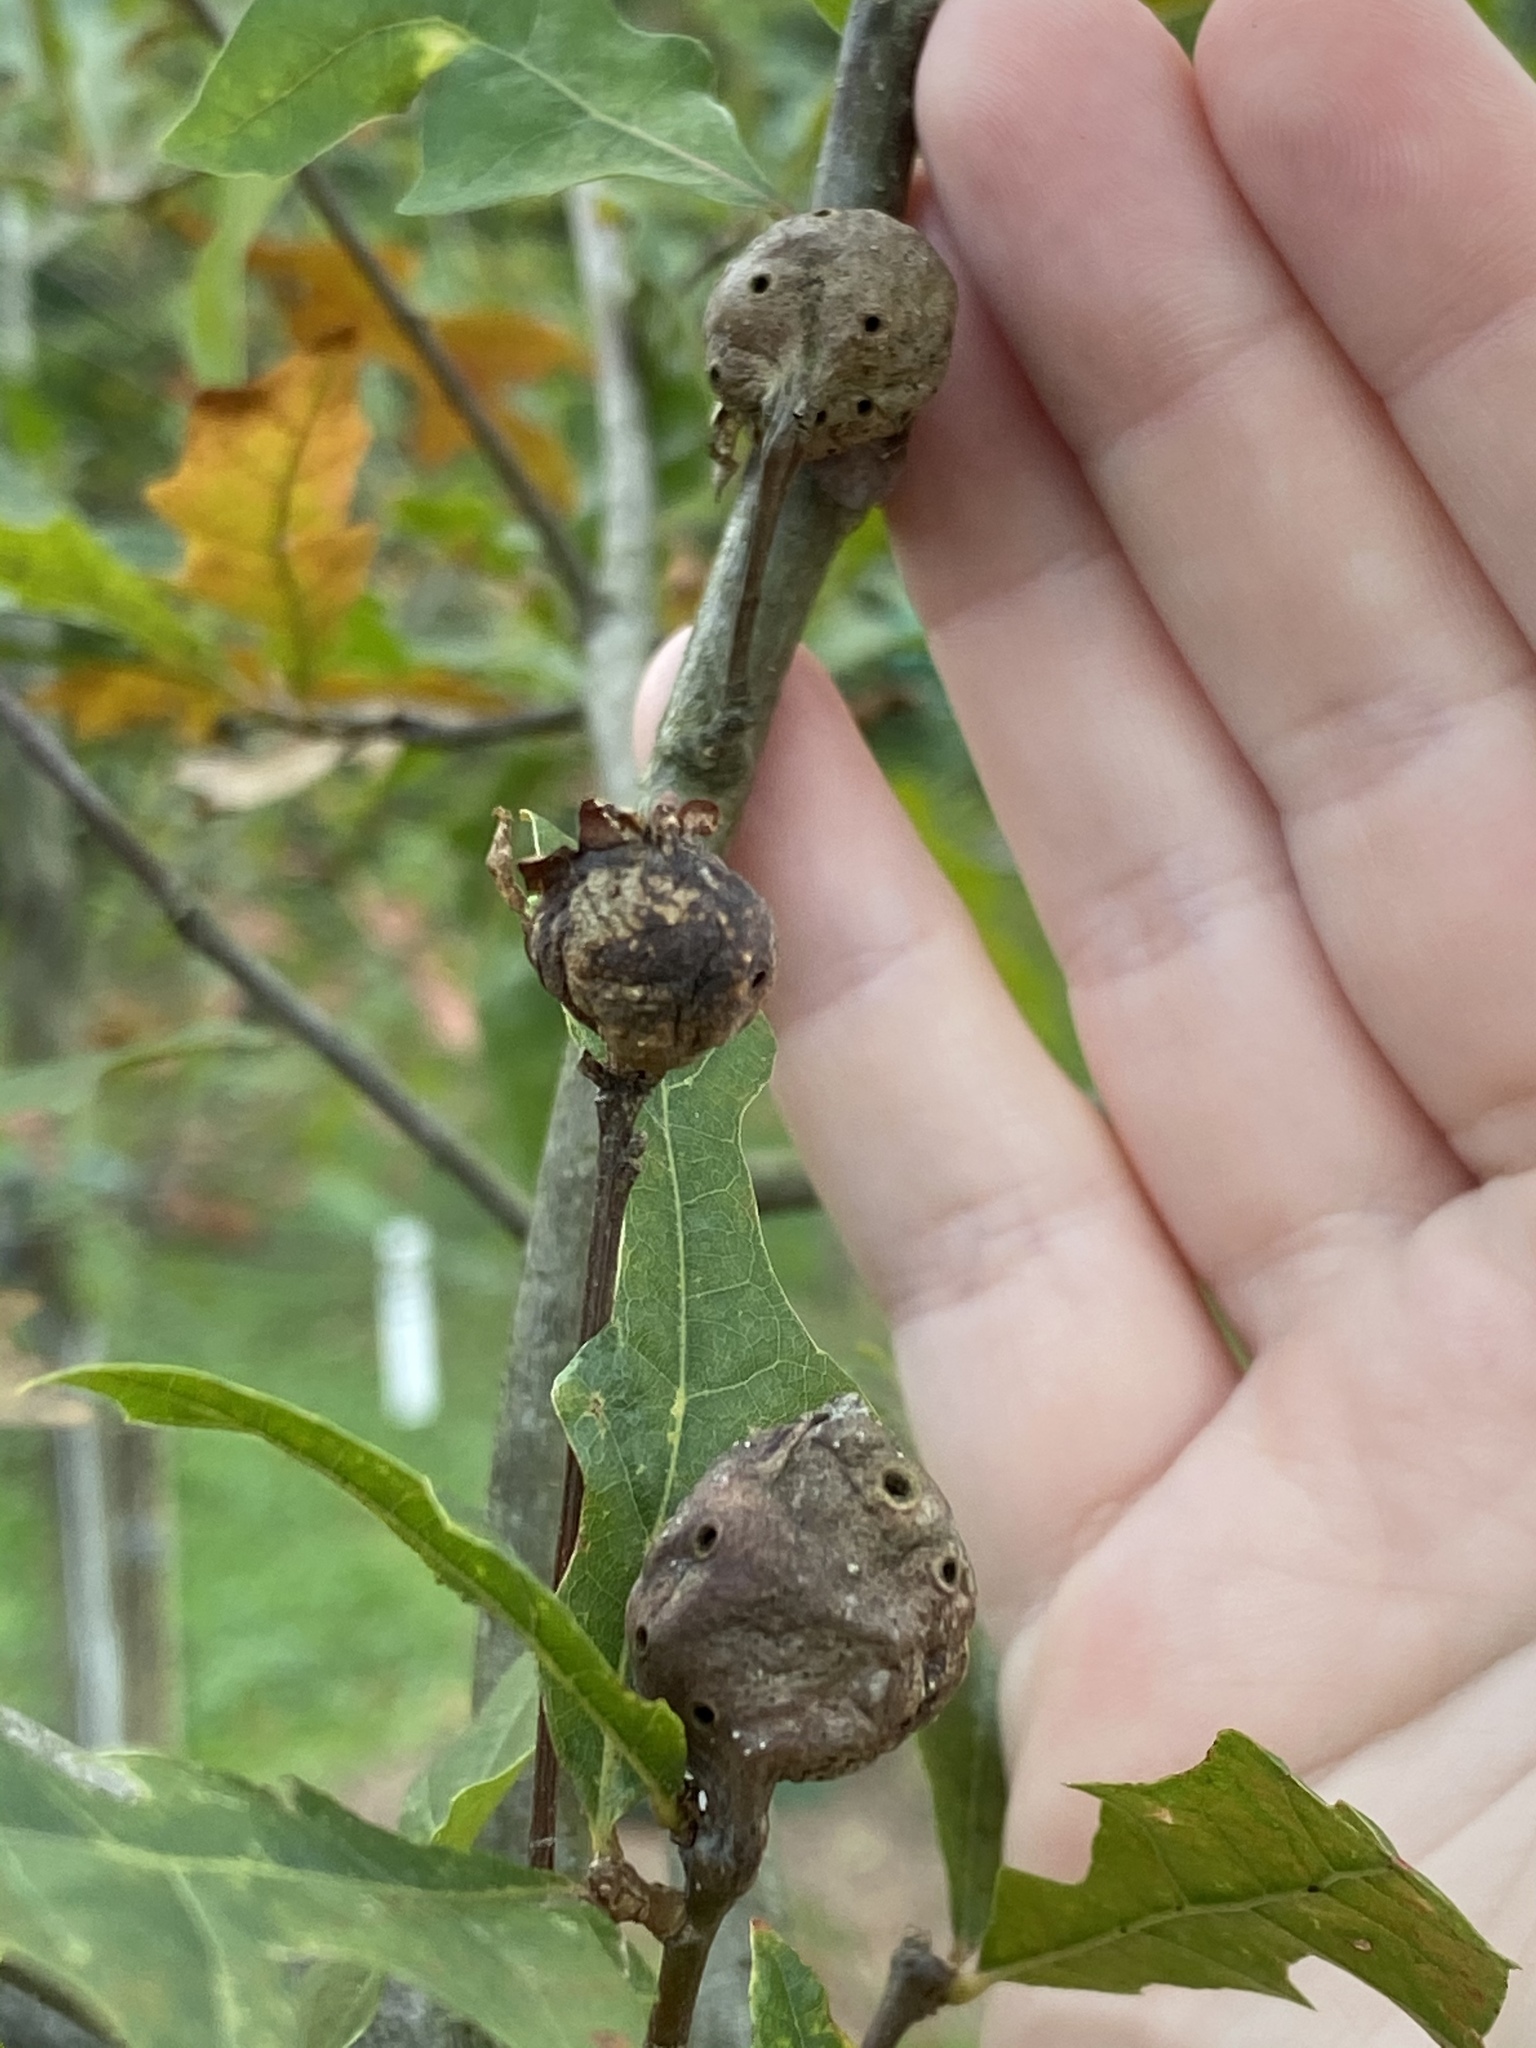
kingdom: Animalia
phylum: Arthropoda
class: Insecta
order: Hymenoptera
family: Cynipidae
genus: Andricus
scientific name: Andricus
